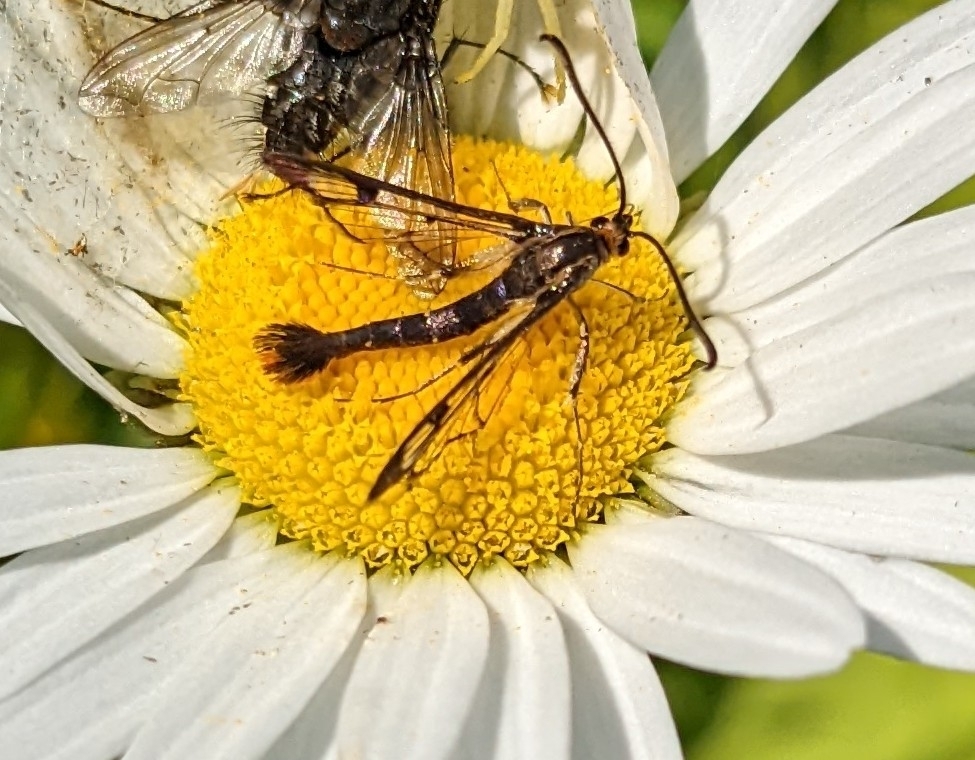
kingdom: Animalia
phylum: Arthropoda
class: Insecta
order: Lepidoptera
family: Sesiidae
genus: Synanthedon
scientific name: Synanthedon acerrubri
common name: Maple clearwing moth
